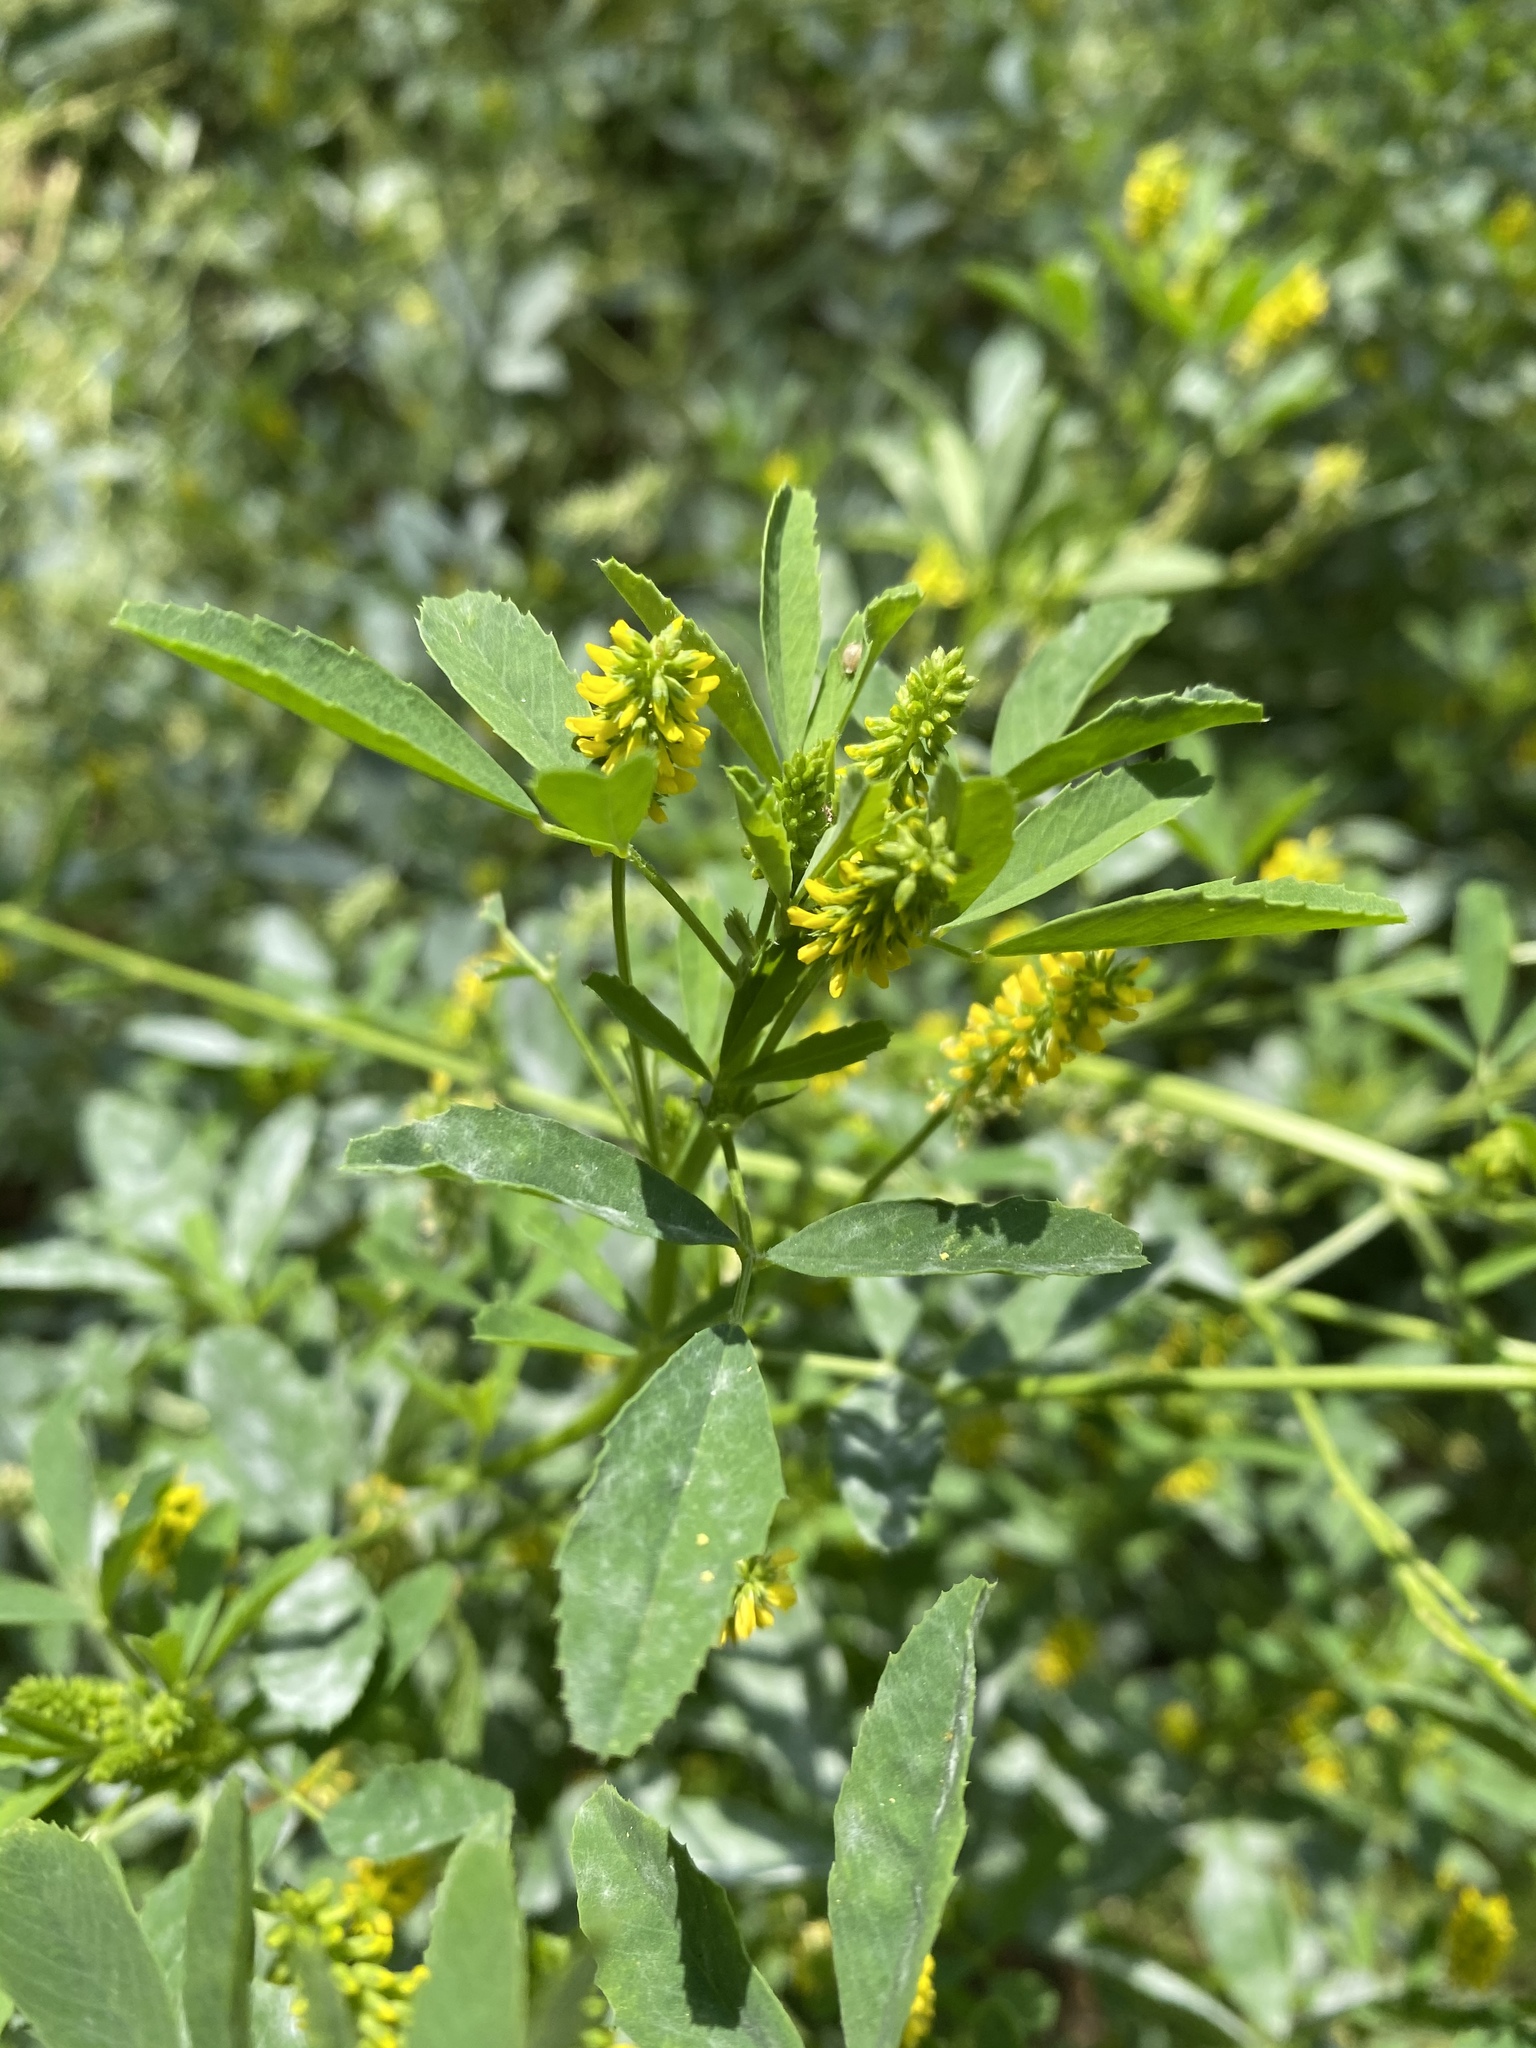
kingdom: Plantae
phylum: Tracheophyta
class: Magnoliopsida
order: Fabales
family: Fabaceae
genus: Melilotus
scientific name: Melilotus indicus
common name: Small melilot
